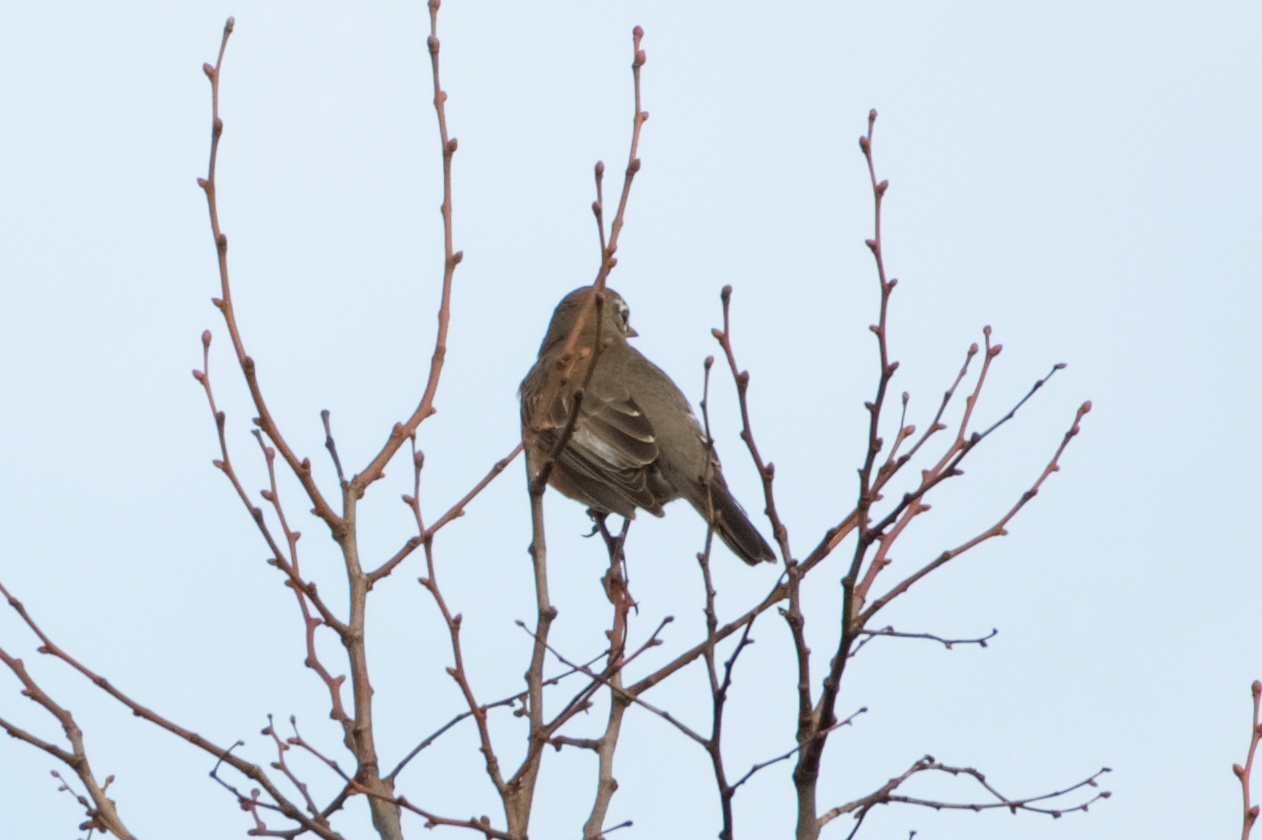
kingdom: Animalia
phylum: Chordata
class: Aves
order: Passeriformes
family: Turdidae
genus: Turdus
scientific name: Turdus migratorius
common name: American robin
